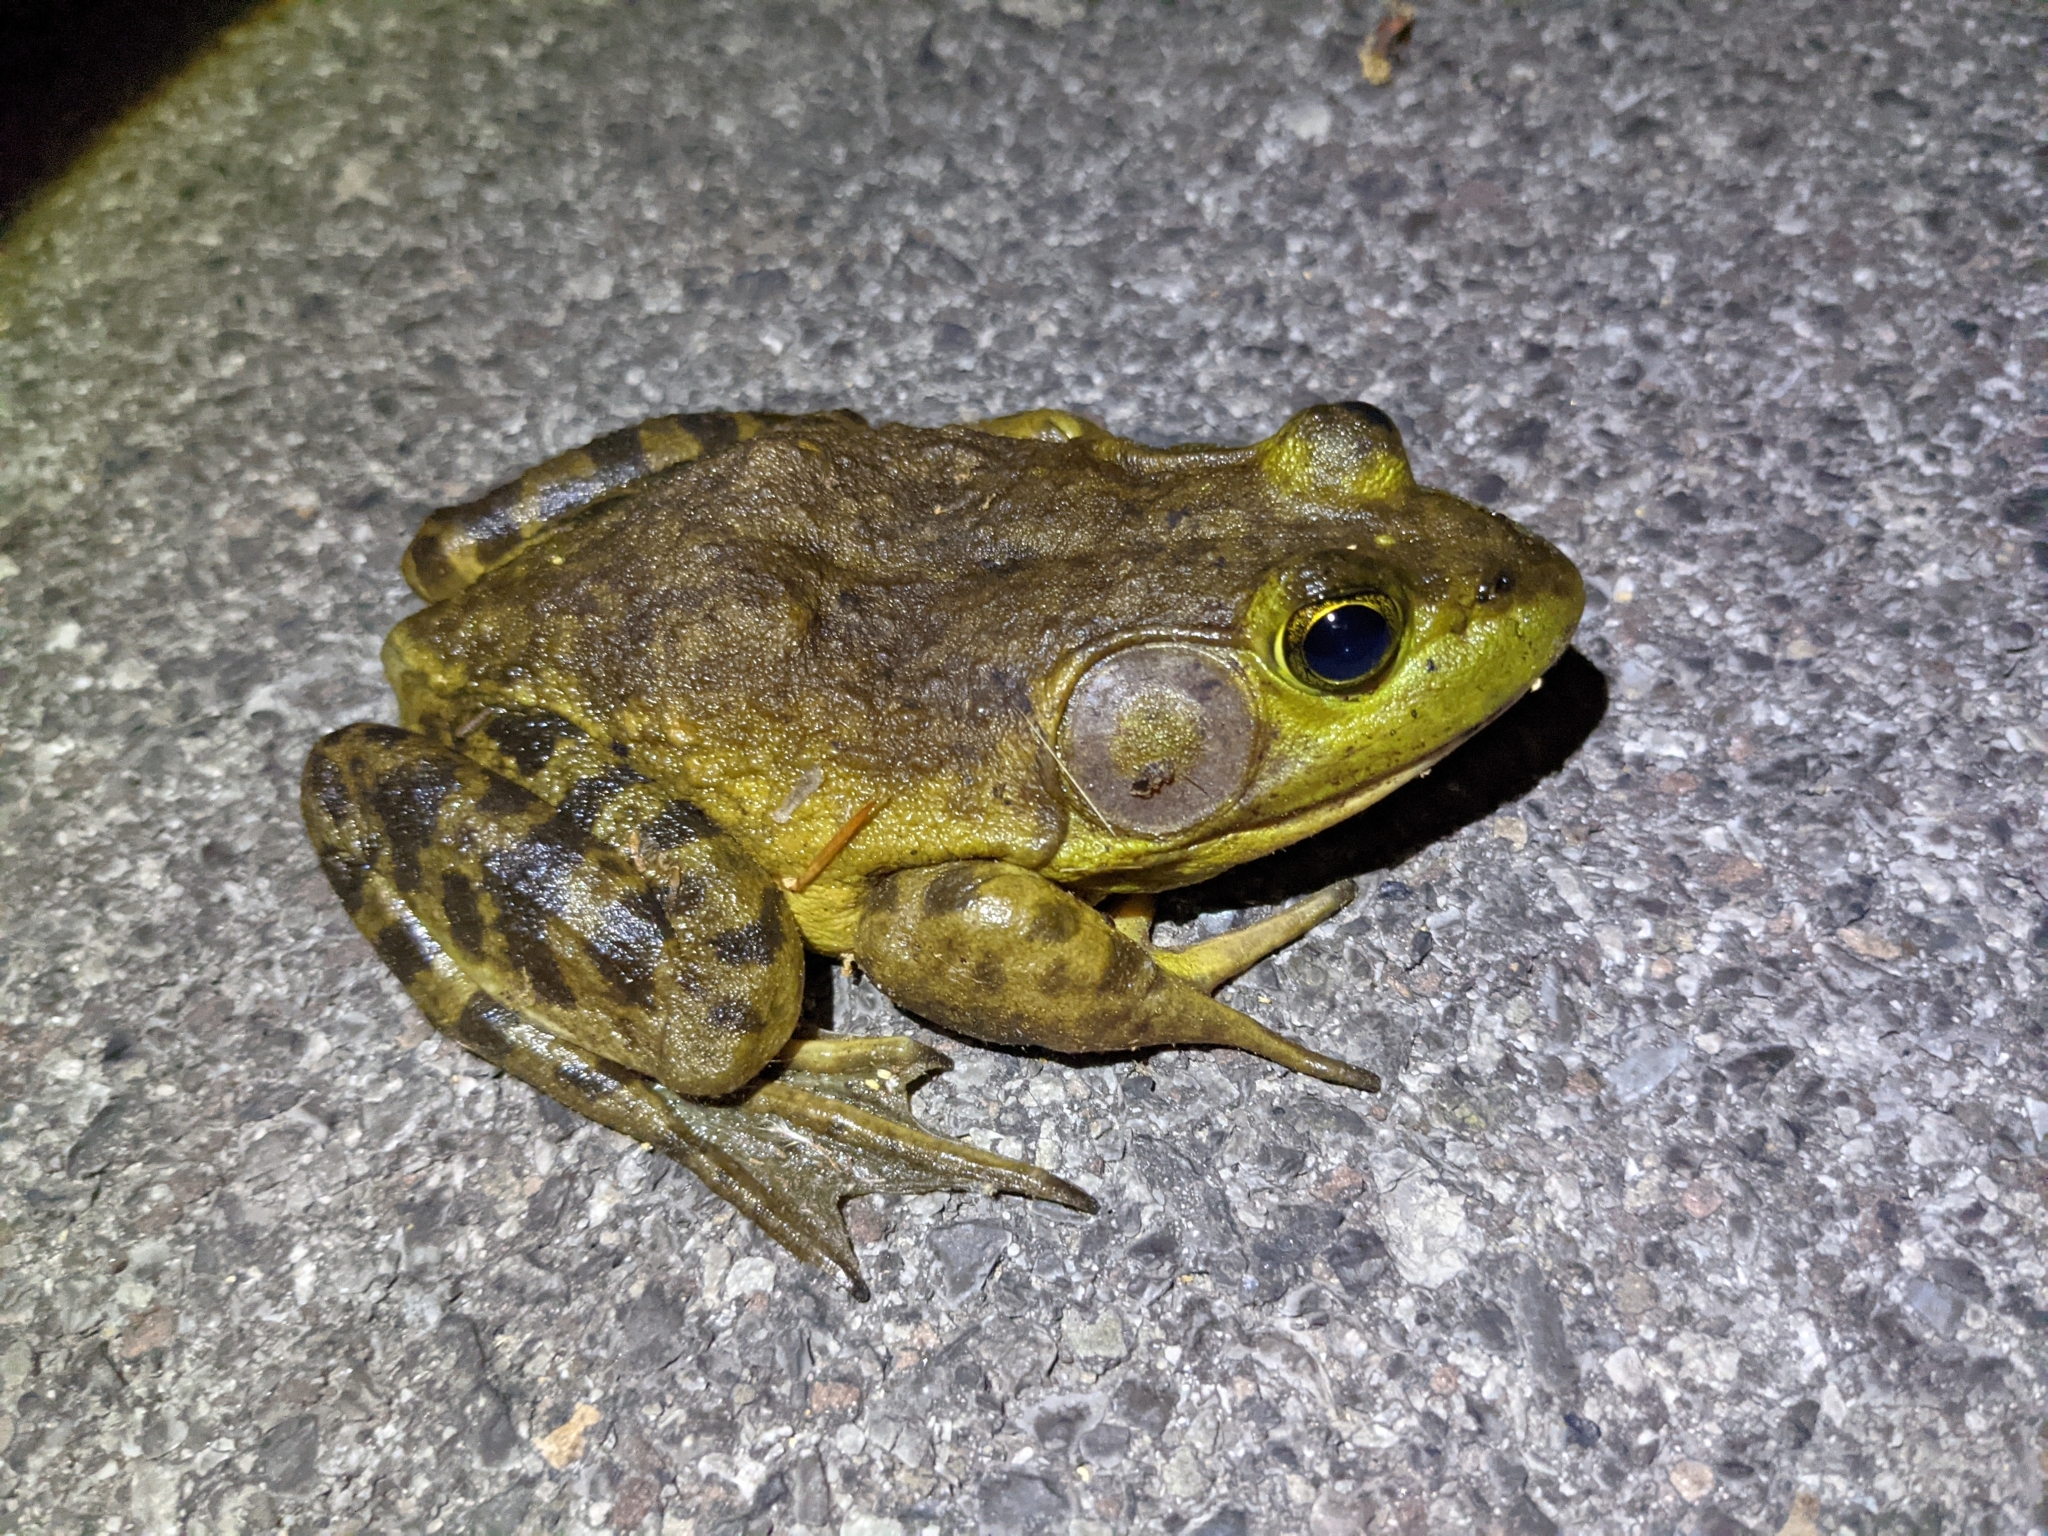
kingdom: Animalia
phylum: Chordata
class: Amphibia
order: Anura
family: Ranidae
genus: Lithobates
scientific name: Lithobates catesbeianus
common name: American bullfrog
